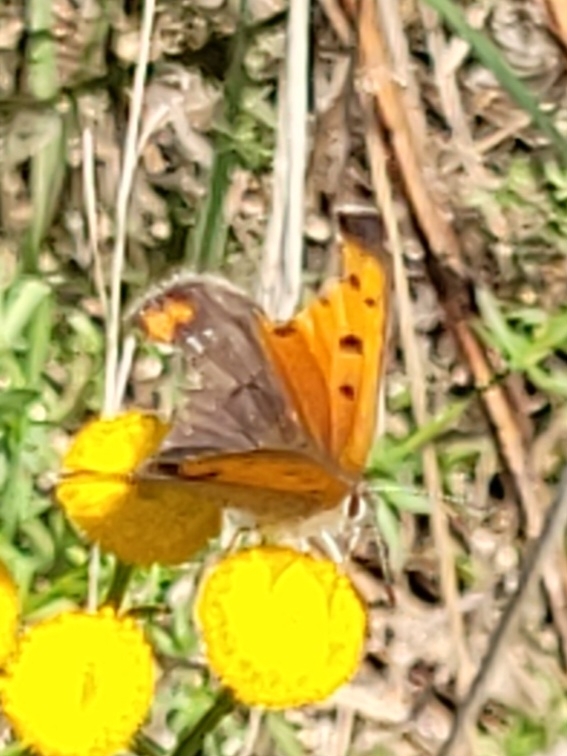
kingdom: Animalia
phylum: Arthropoda
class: Insecta
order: Lepidoptera
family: Lycaenidae
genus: Lycaena
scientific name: Lycaena phlaeas
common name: Small copper
